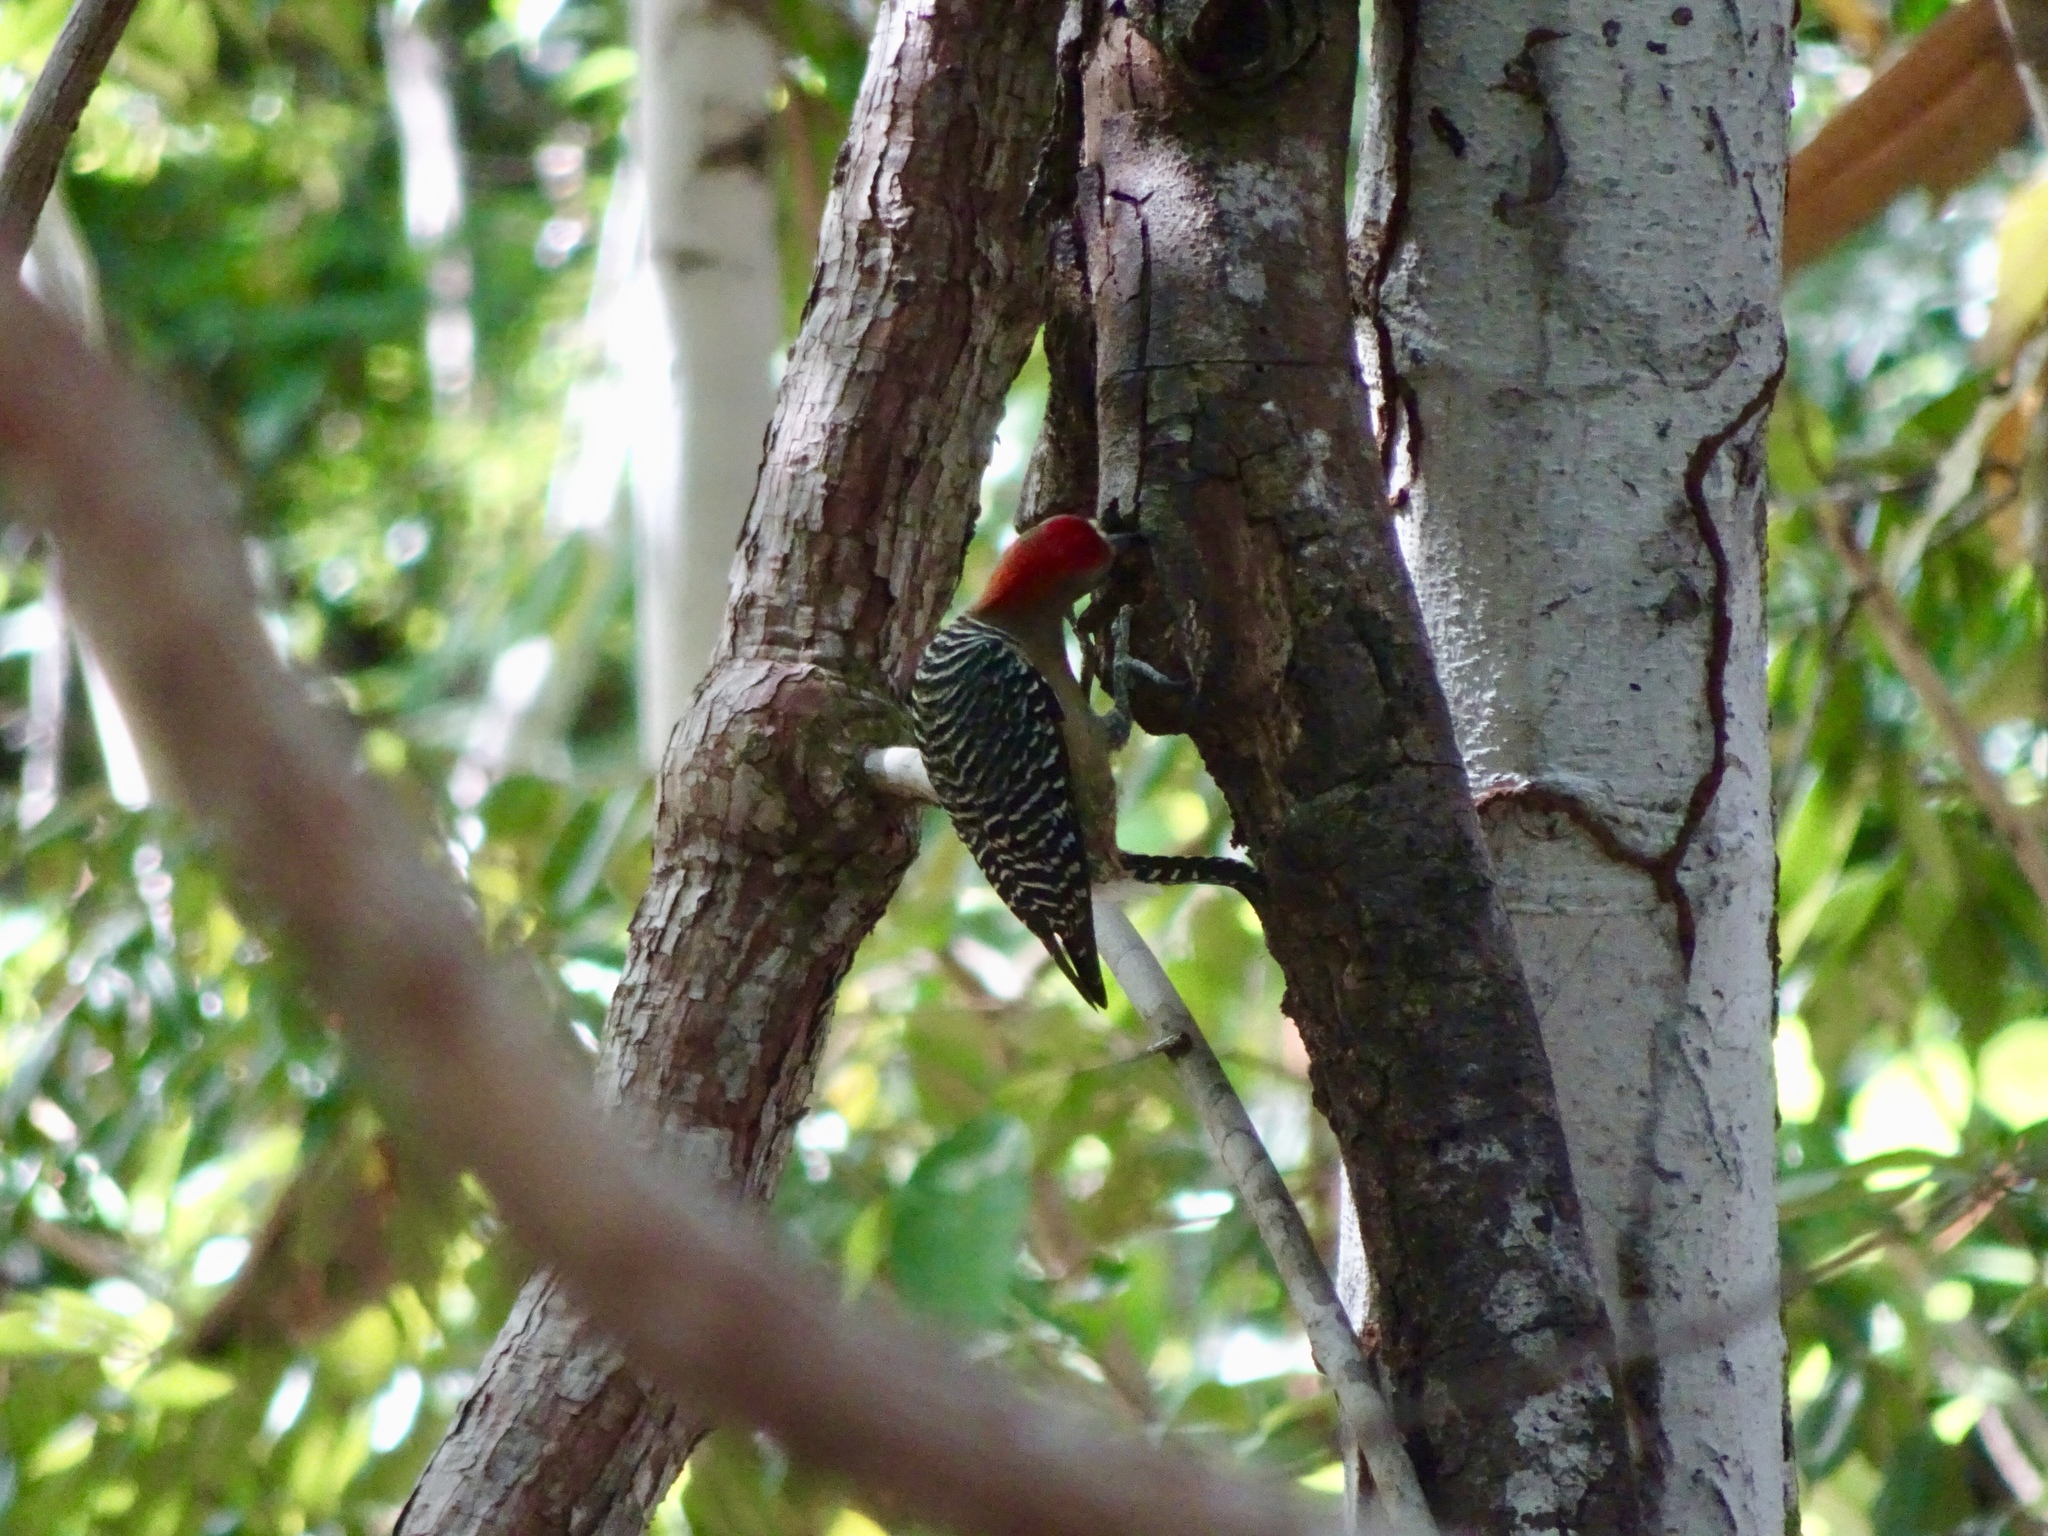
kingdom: Animalia
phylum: Chordata
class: Aves
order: Piciformes
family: Picidae
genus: Melanerpes
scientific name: Melanerpes rubricapillus
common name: Red-crowned woodpecker
